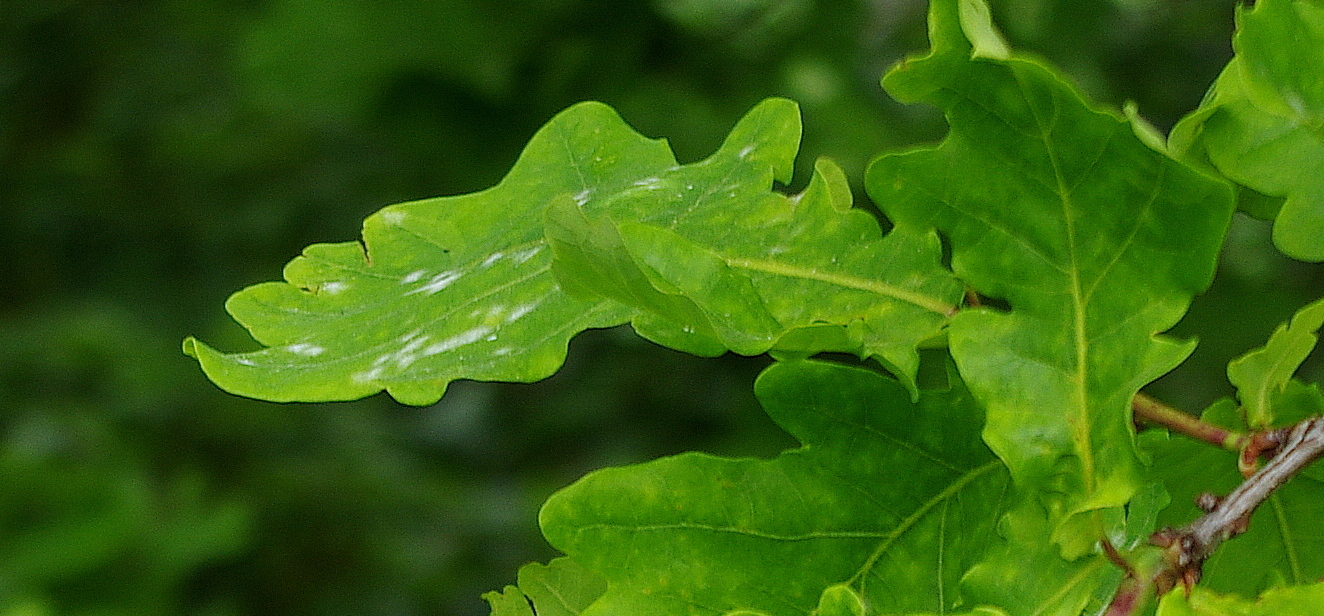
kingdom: Fungi
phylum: Ascomycota
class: Leotiomycetes
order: Helotiales
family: Erysiphaceae
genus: Erysiphe
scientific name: Erysiphe alphitoides
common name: Oak mildew
